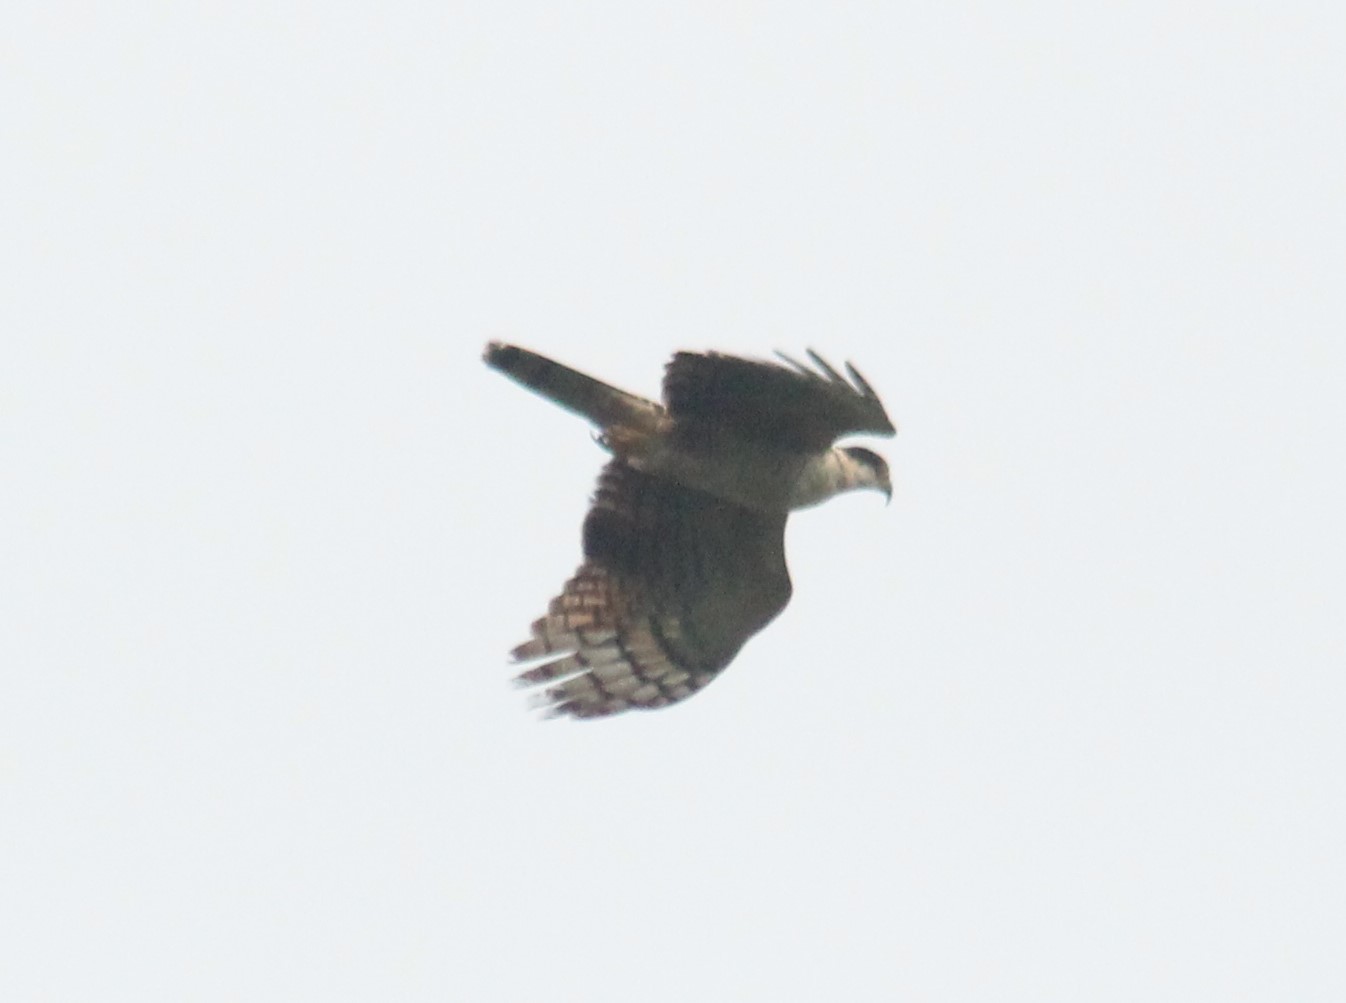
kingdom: Animalia
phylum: Chordata
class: Aves
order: Accipitriformes
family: Accipitridae
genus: Chondrohierax
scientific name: Chondrohierax uncinatus
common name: Hook-billed kite
